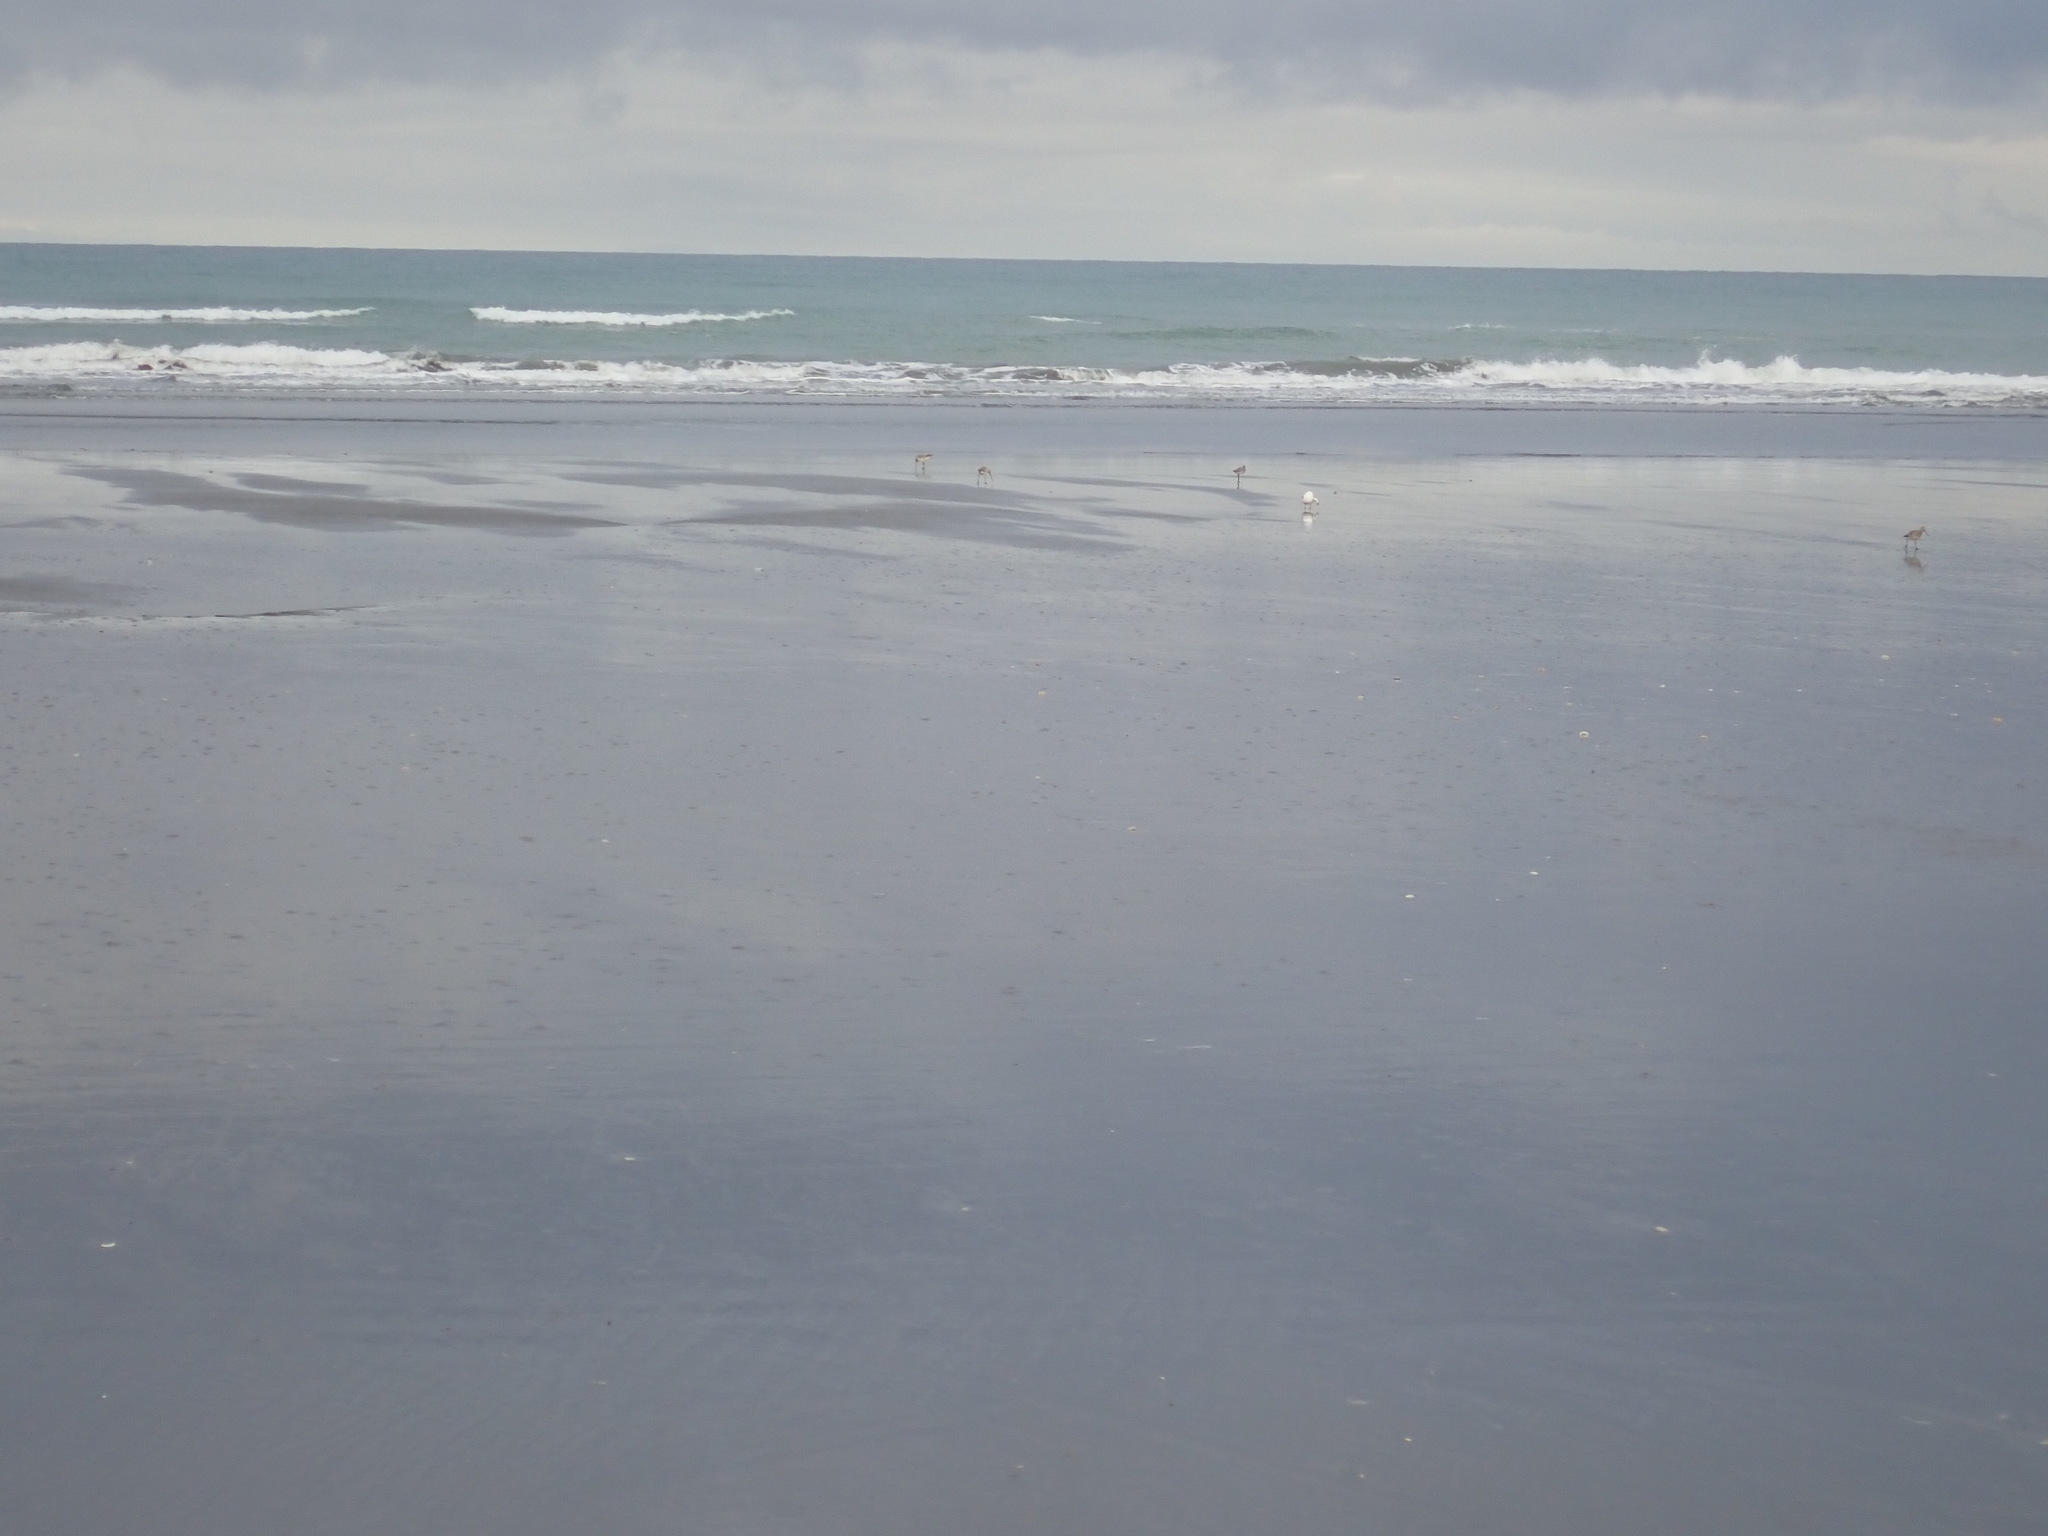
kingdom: Animalia
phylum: Chordata
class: Aves
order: Charadriiformes
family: Scolopacidae
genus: Limosa
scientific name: Limosa lapponica
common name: Bar-tailed godwit
